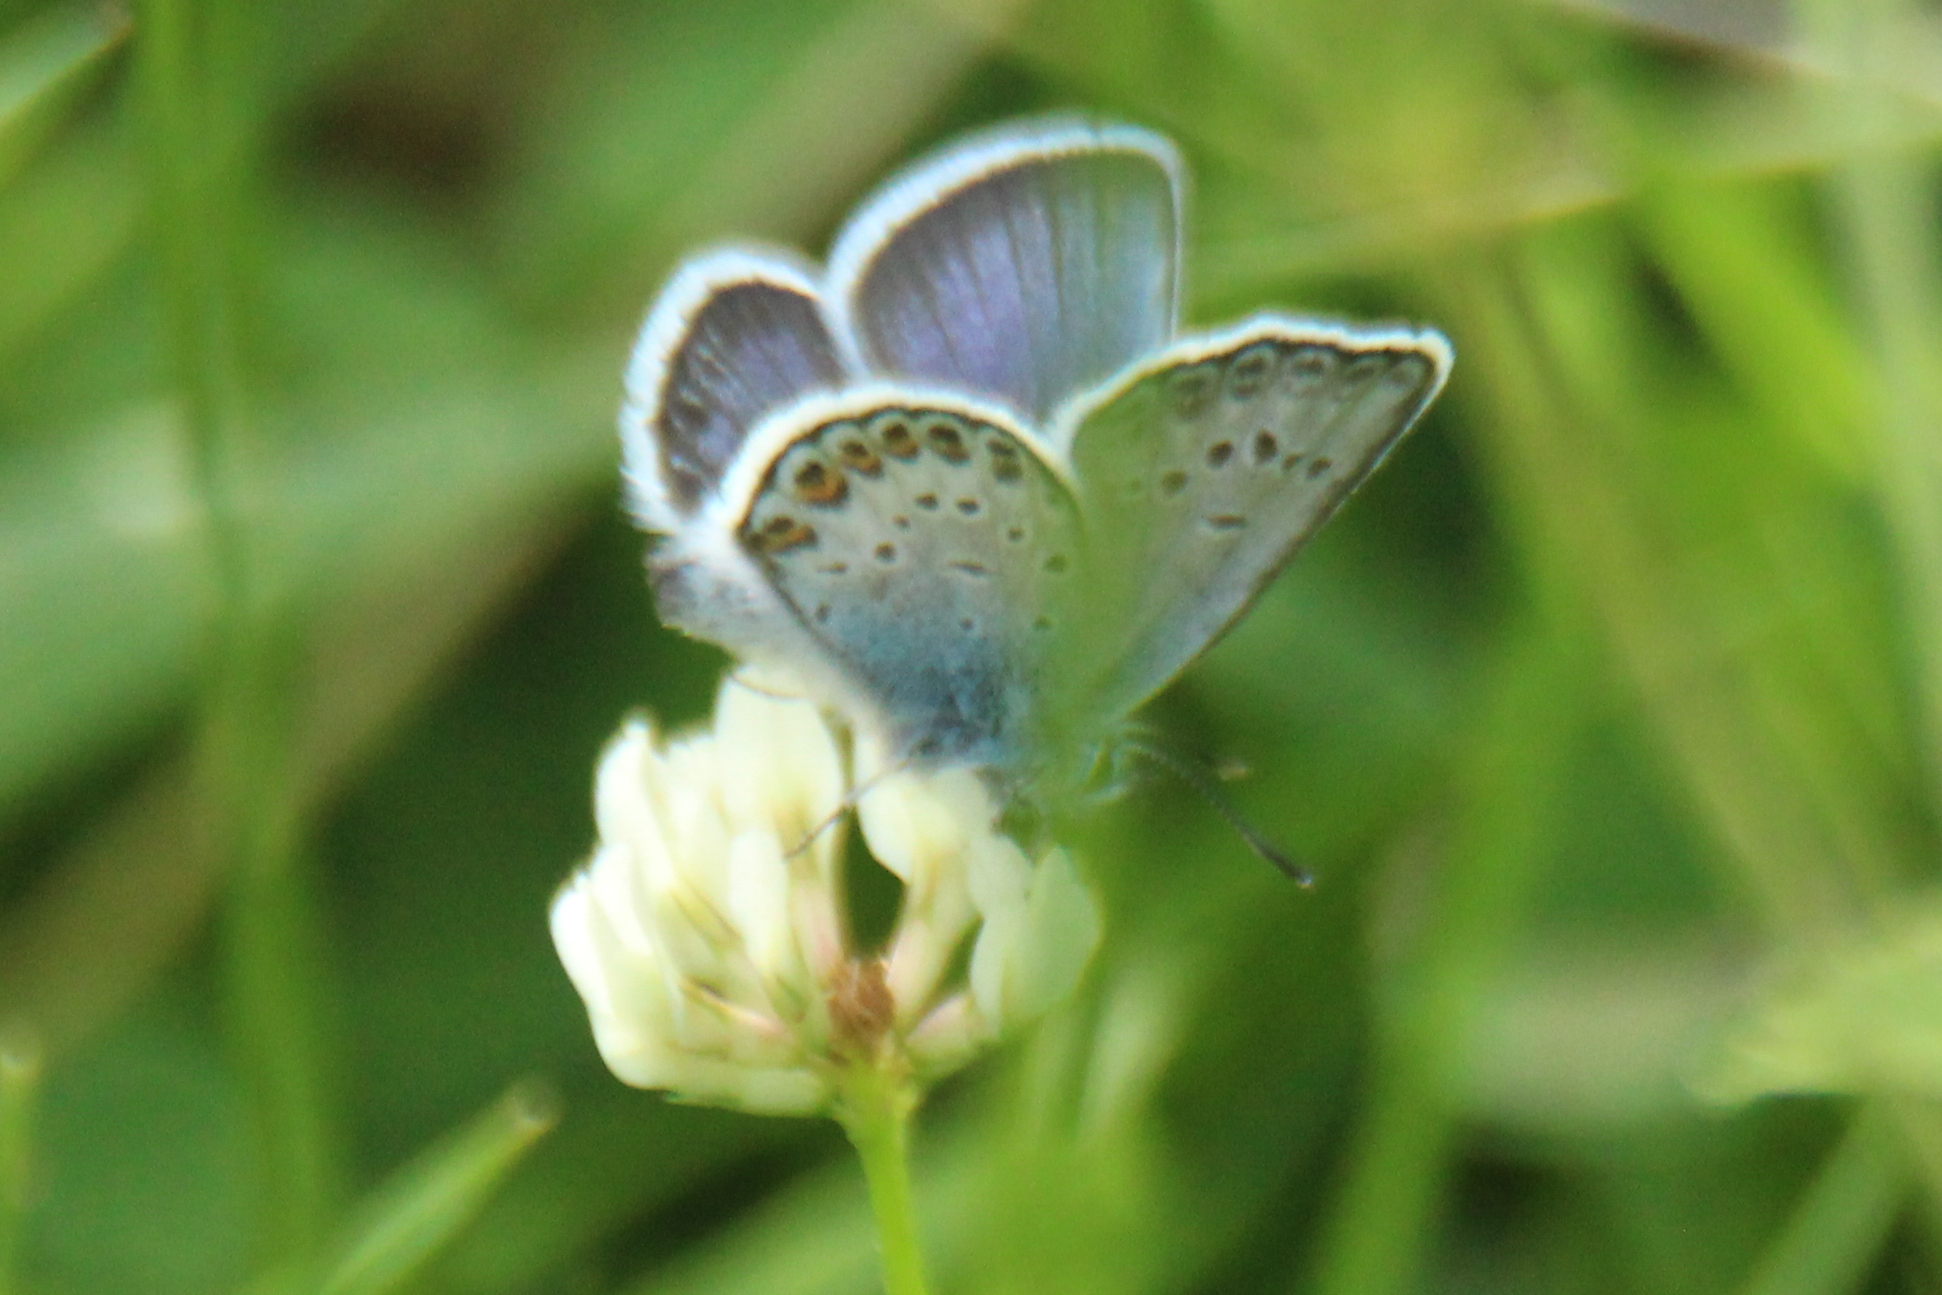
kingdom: Animalia
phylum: Arthropoda
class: Insecta
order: Lepidoptera
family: Lycaenidae
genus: Plebejus
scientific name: Plebejus argus
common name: Silver-studded blue
